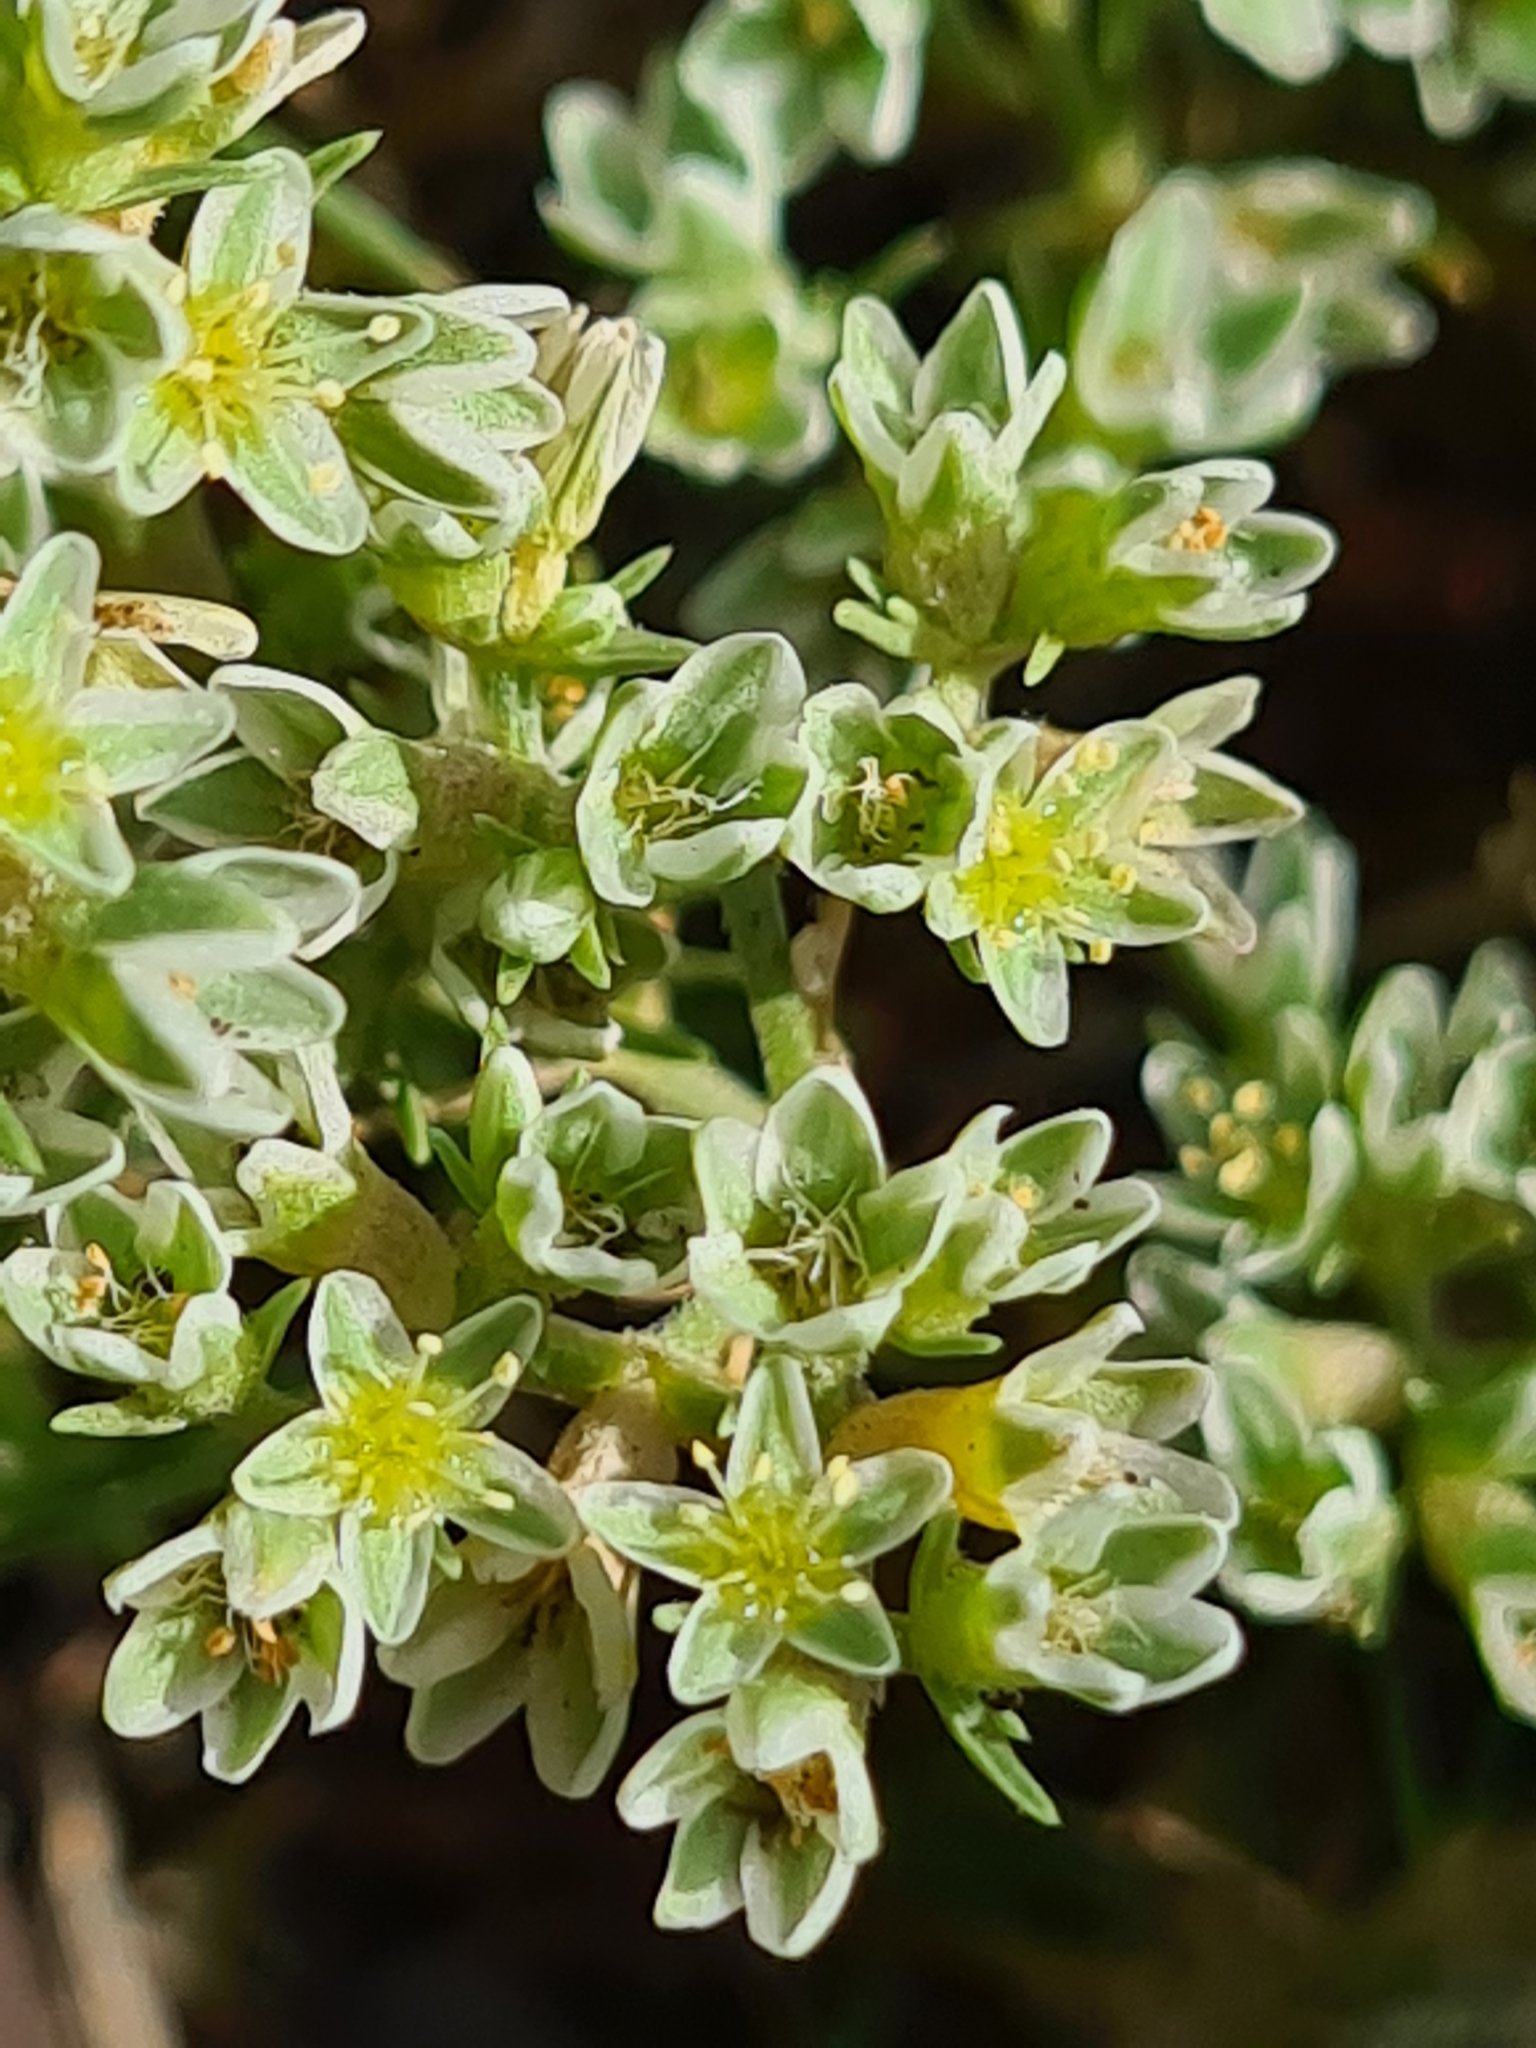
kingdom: Plantae
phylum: Tracheophyta
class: Magnoliopsida
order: Caryophyllales
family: Caryophyllaceae
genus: Scleranthus
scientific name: Scleranthus perennis
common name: Perennial knawel
